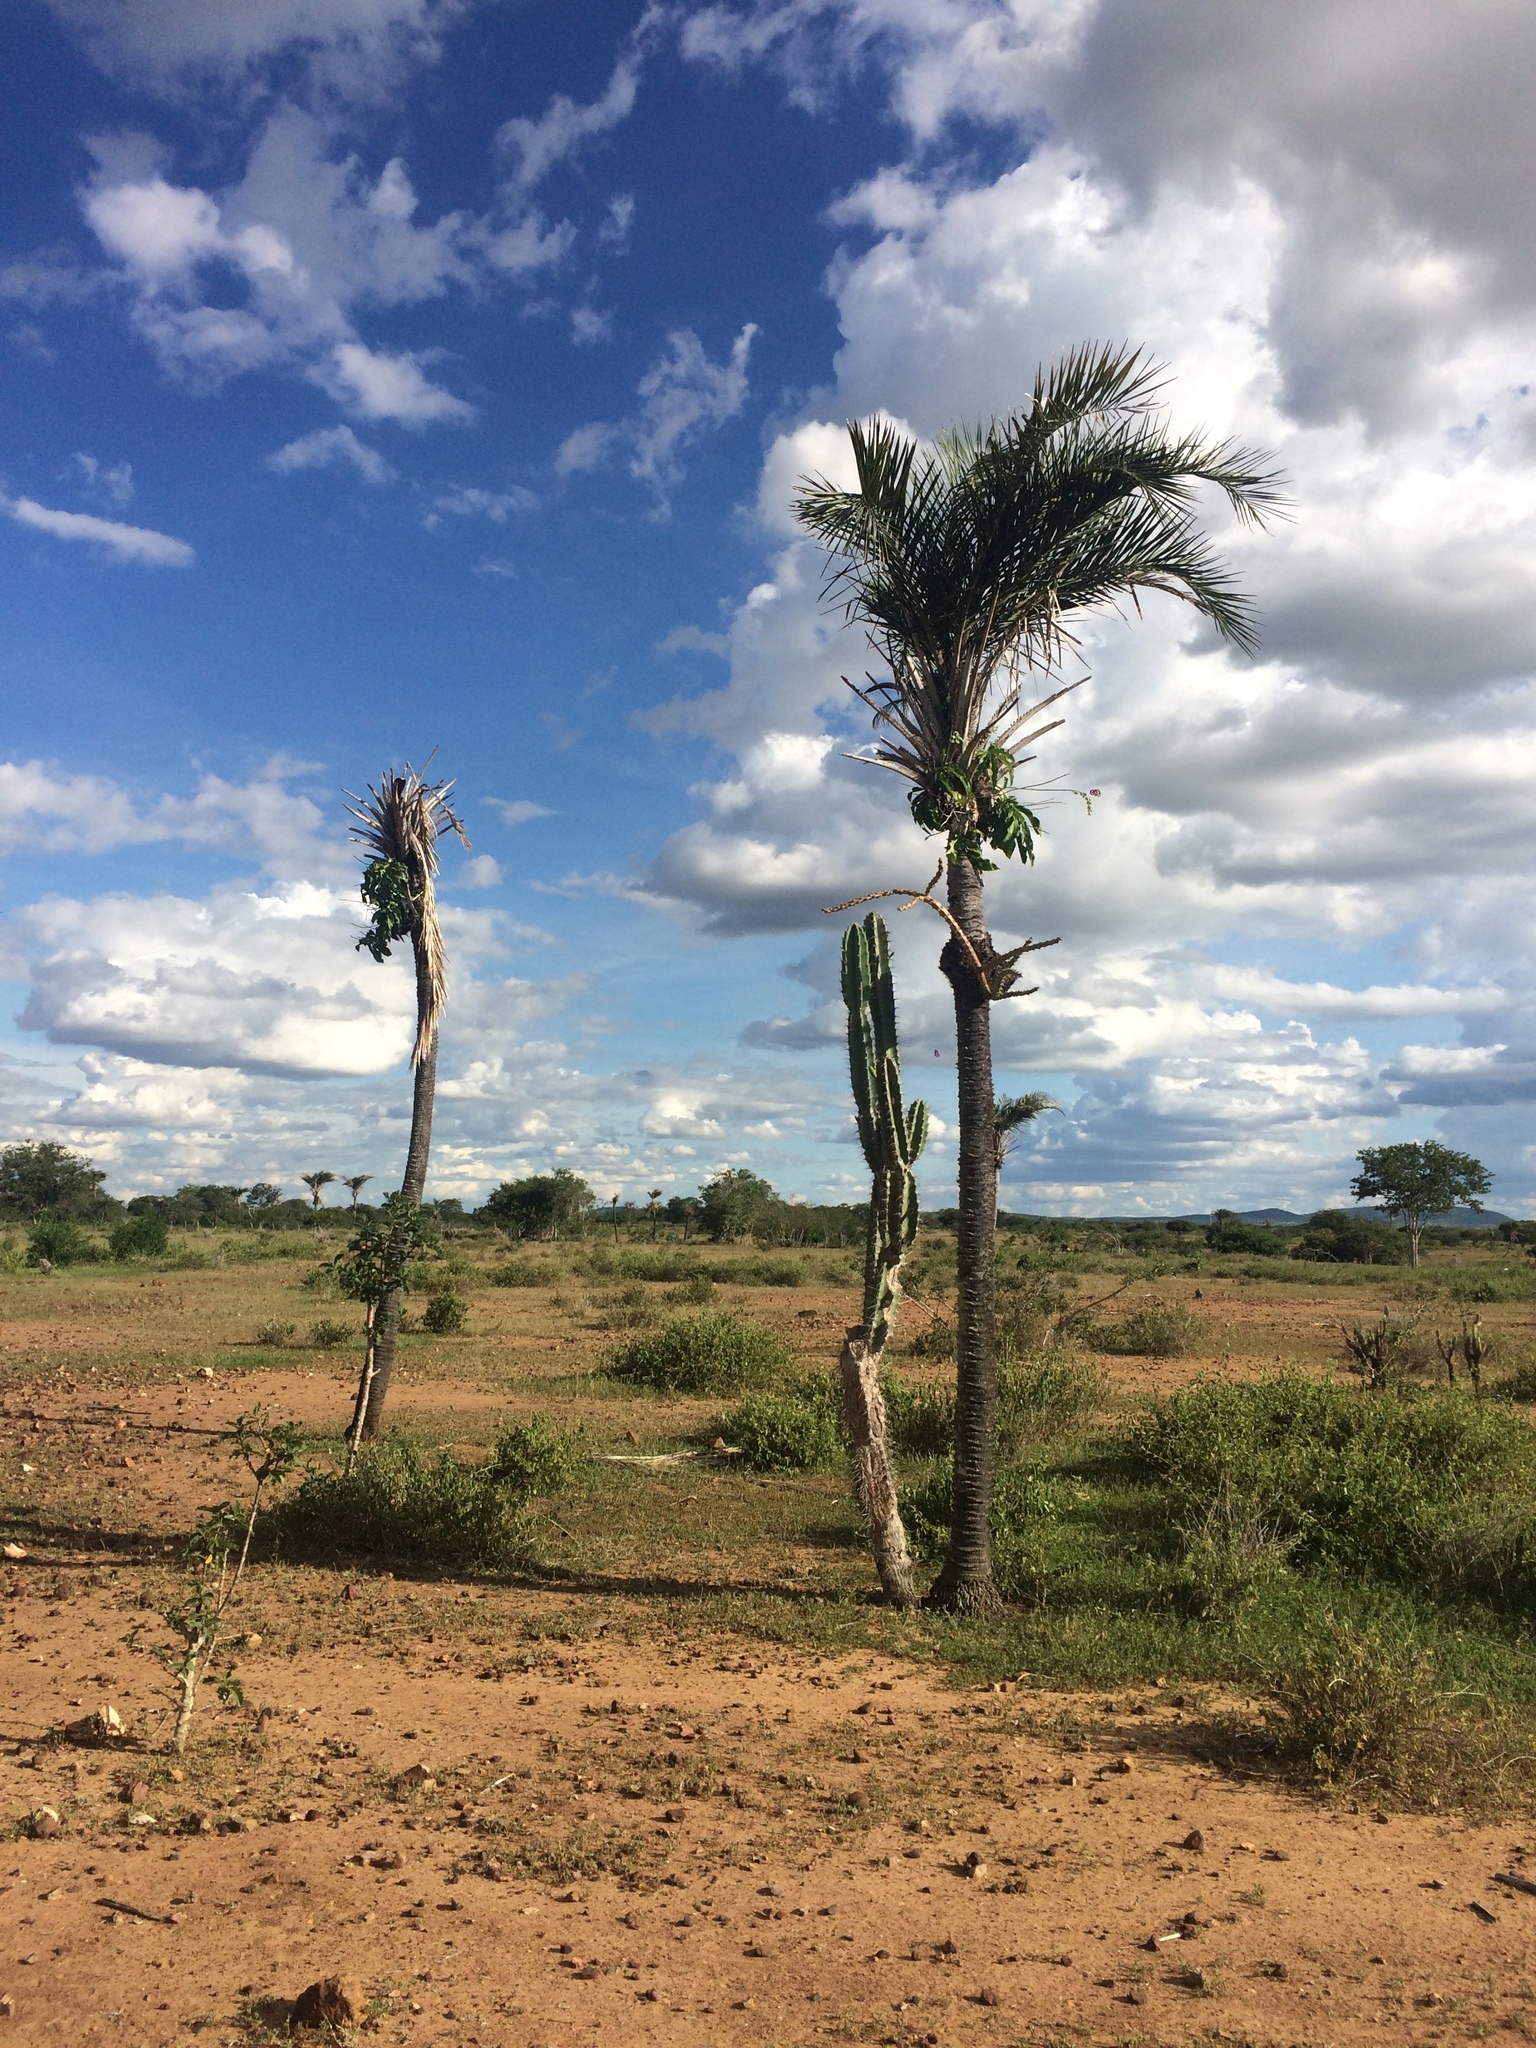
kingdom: Plantae
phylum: Tracheophyta
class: Liliopsida
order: Arecales
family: Arecaceae
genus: Syagrus
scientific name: Syagrus coronata
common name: Licuri palm
